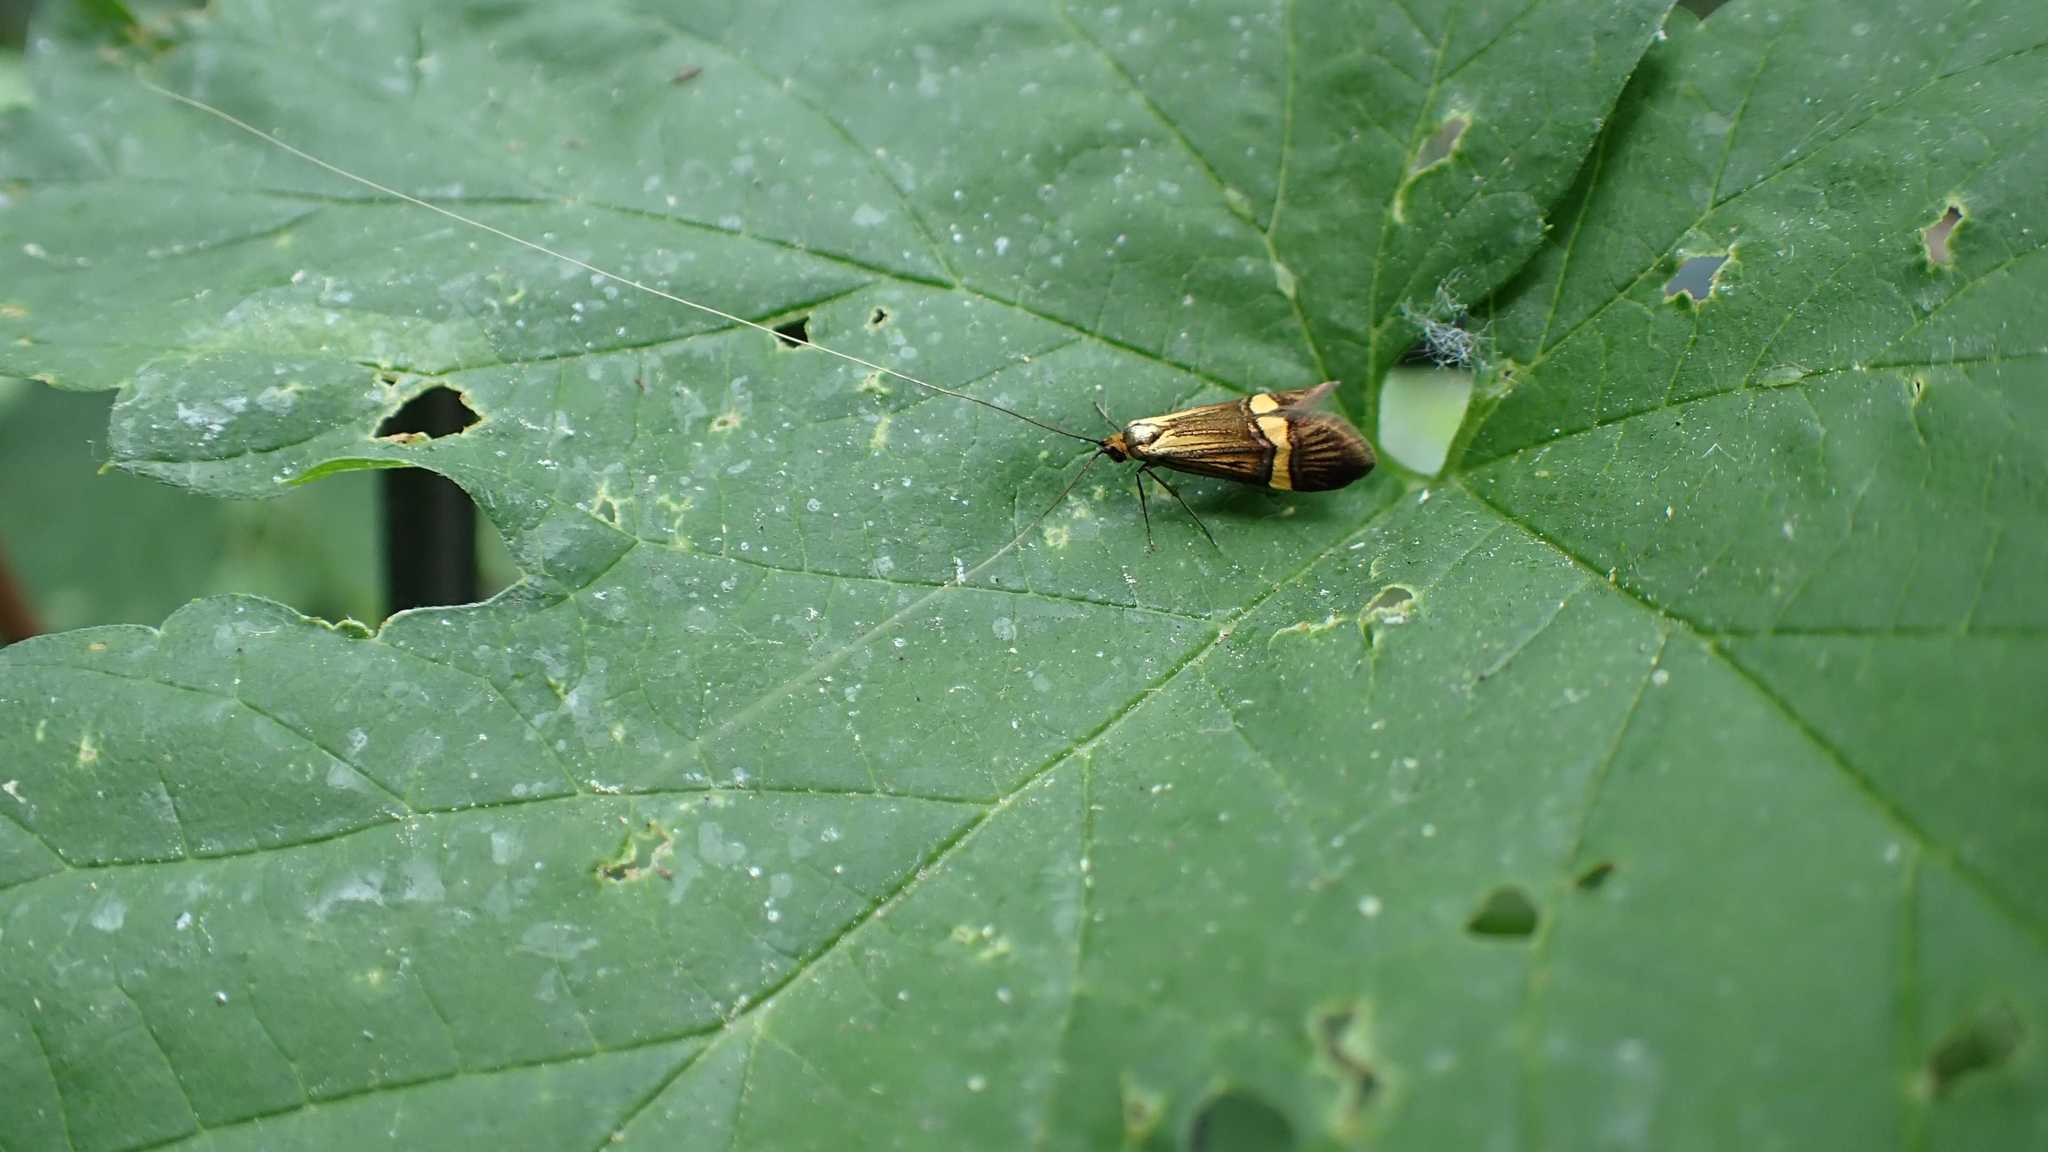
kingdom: Animalia
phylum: Arthropoda
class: Insecta
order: Lepidoptera
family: Adelidae
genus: Nemophora
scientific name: Nemophora degeerella
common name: Yellow-barred long-horn
